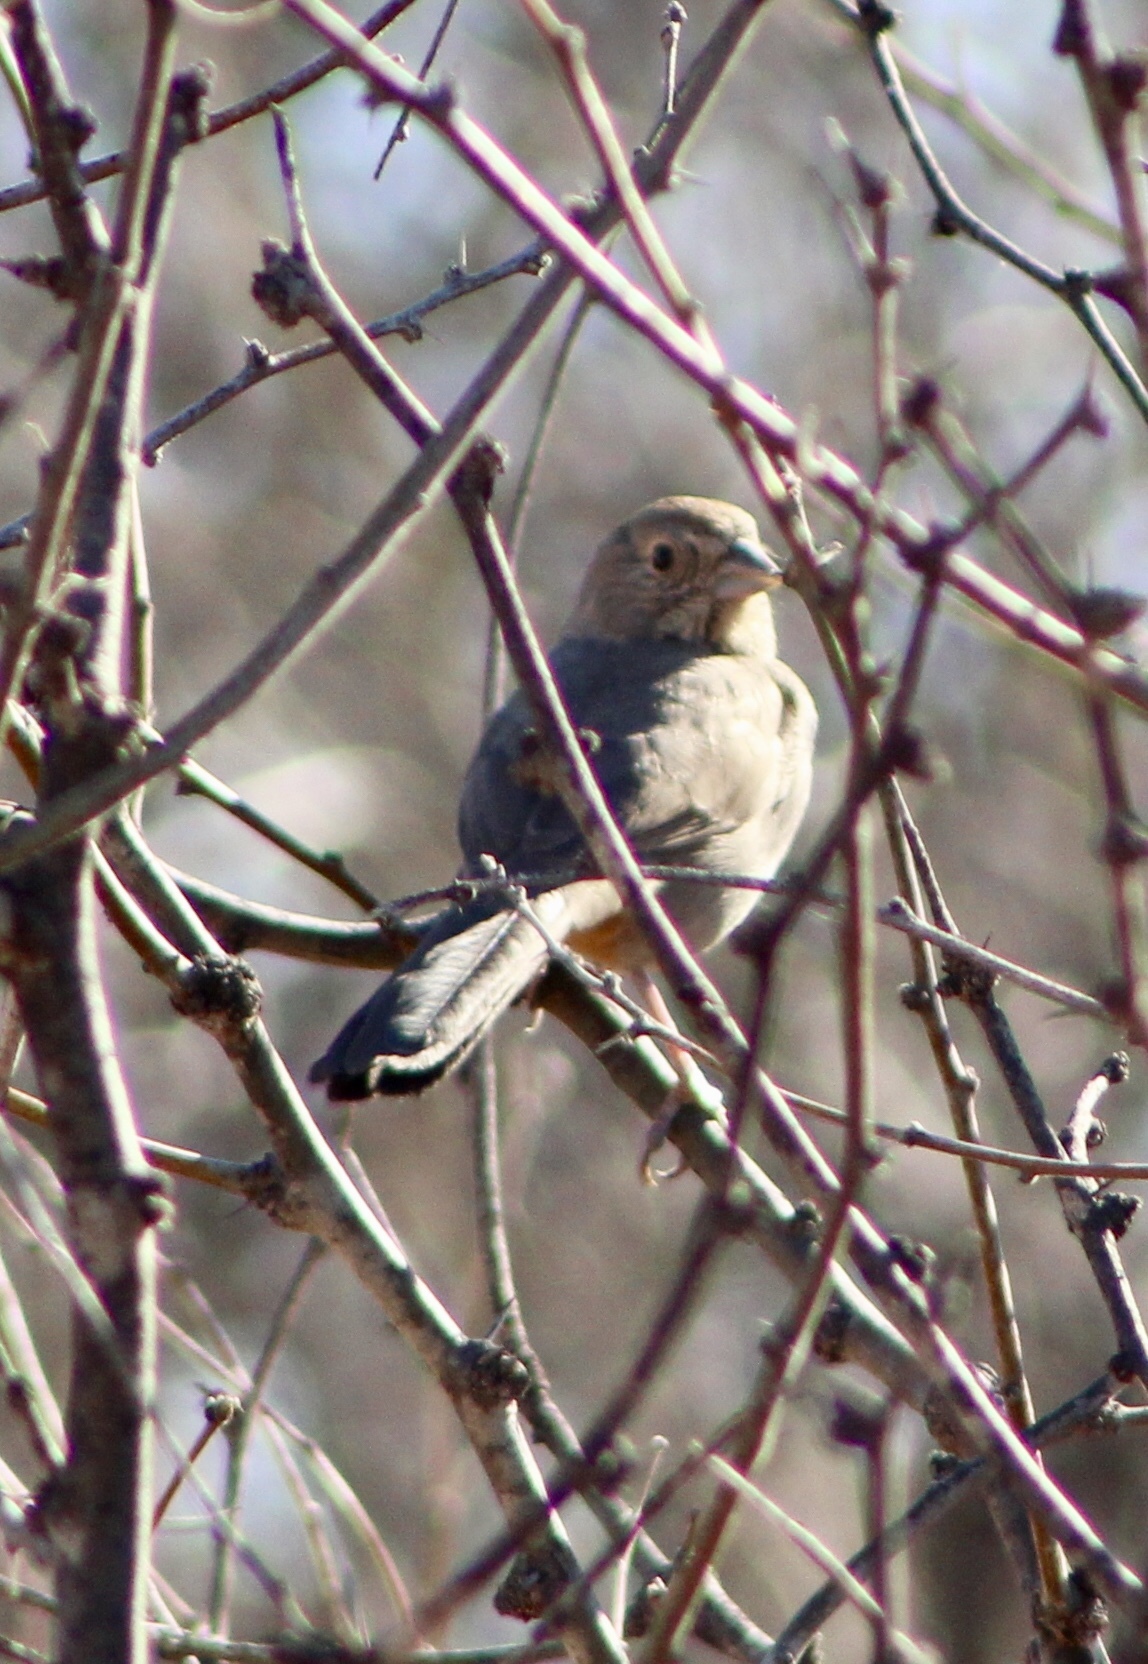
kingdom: Animalia
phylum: Chordata
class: Aves
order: Passeriformes
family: Passerellidae
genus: Melozone
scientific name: Melozone fusca
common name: Canyon towhee
